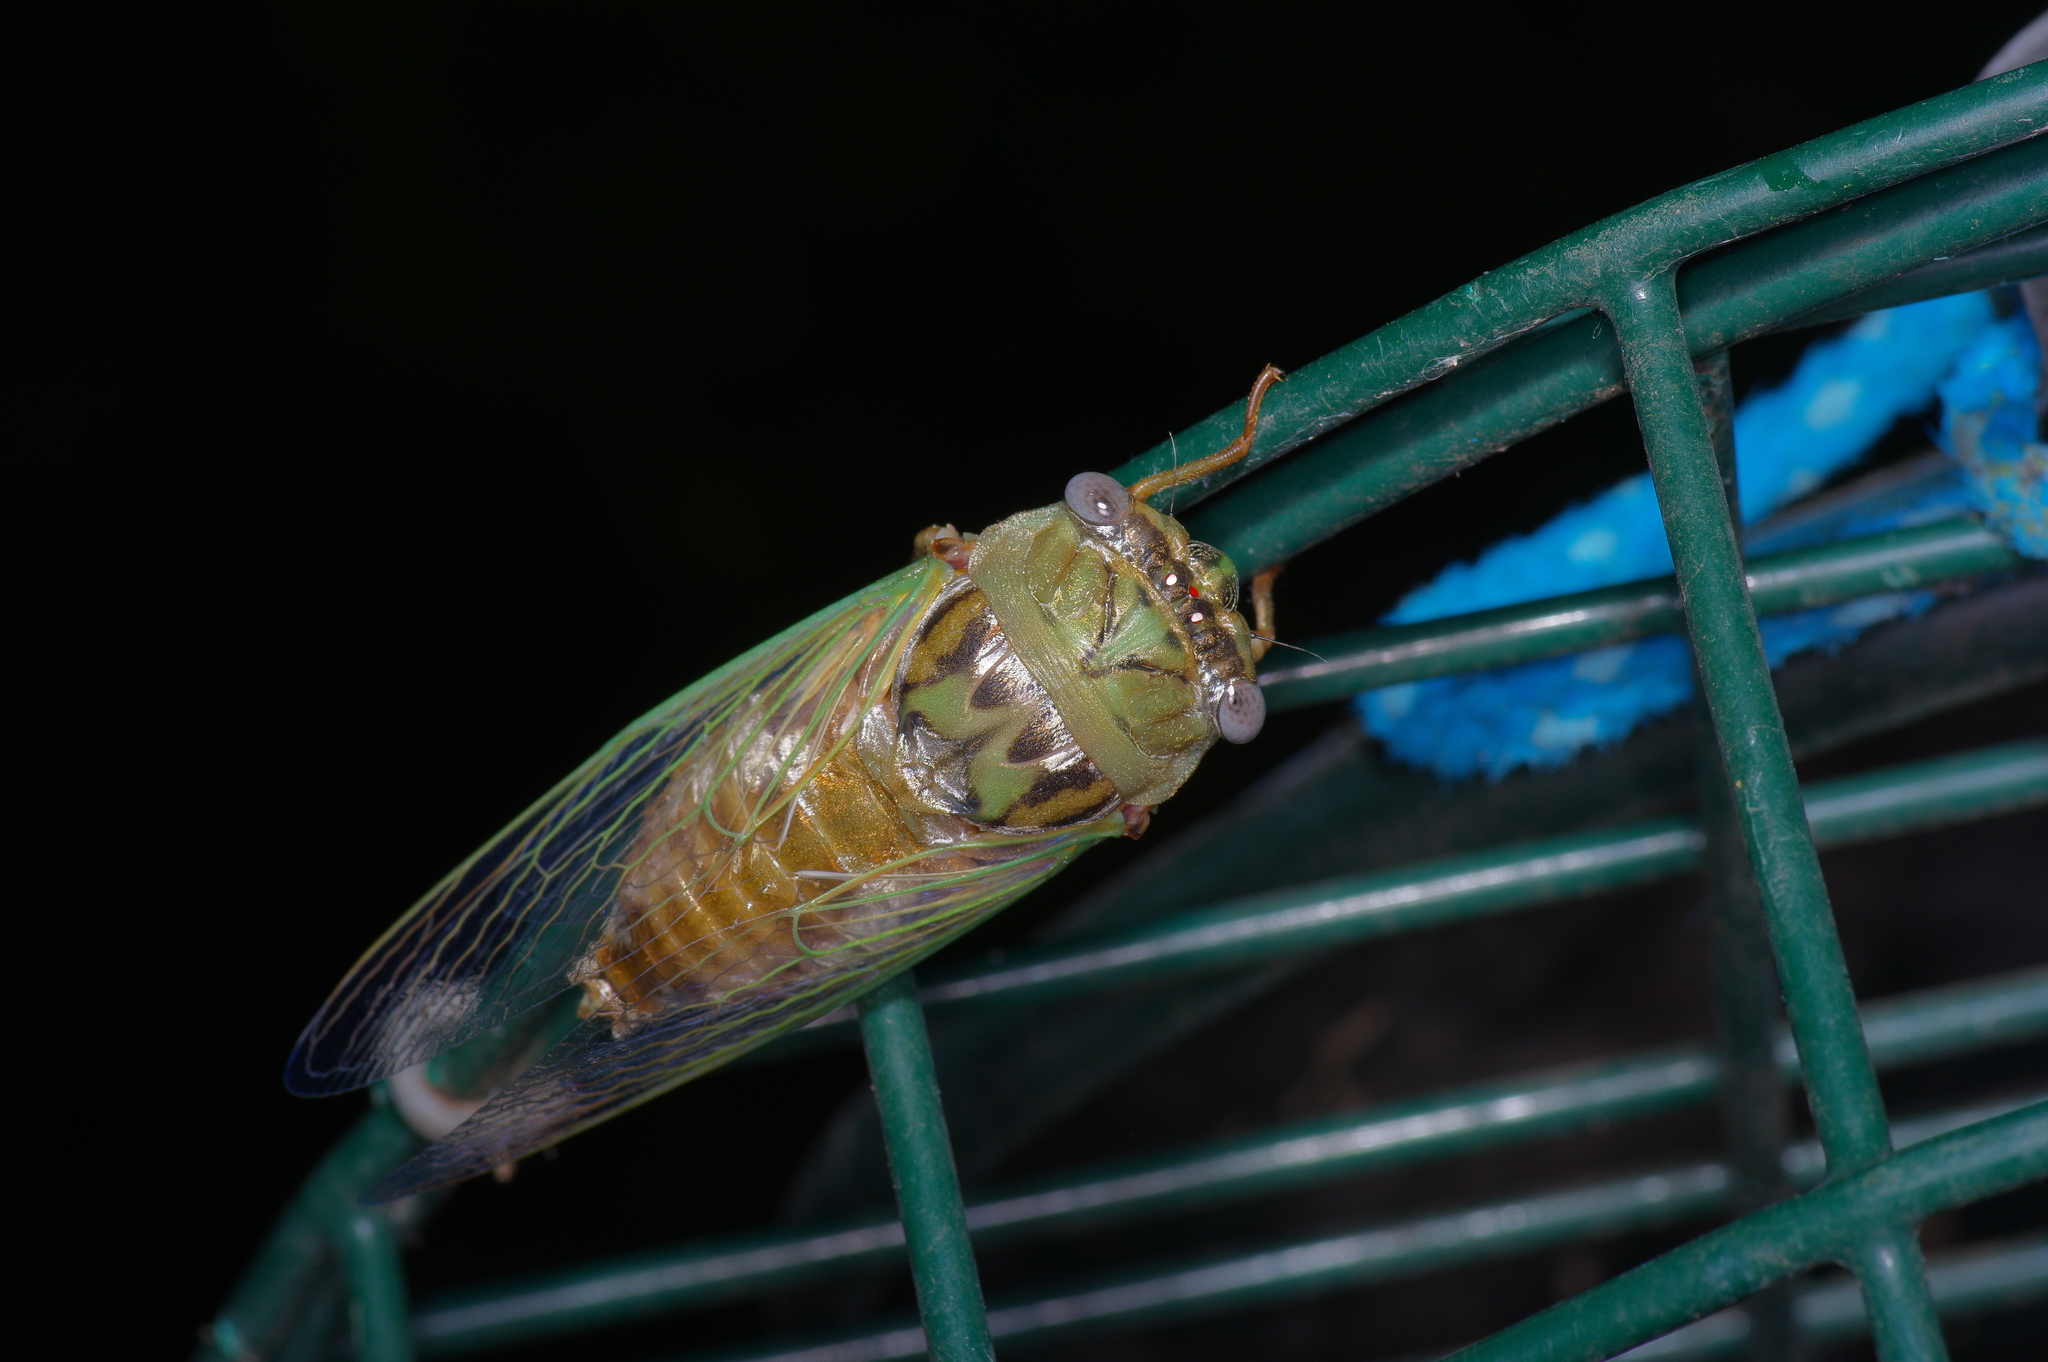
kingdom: Animalia
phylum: Arthropoda
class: Insecta
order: Hemiptera
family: Cicadidae
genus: Megatibicen
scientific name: Megatibicen resh
